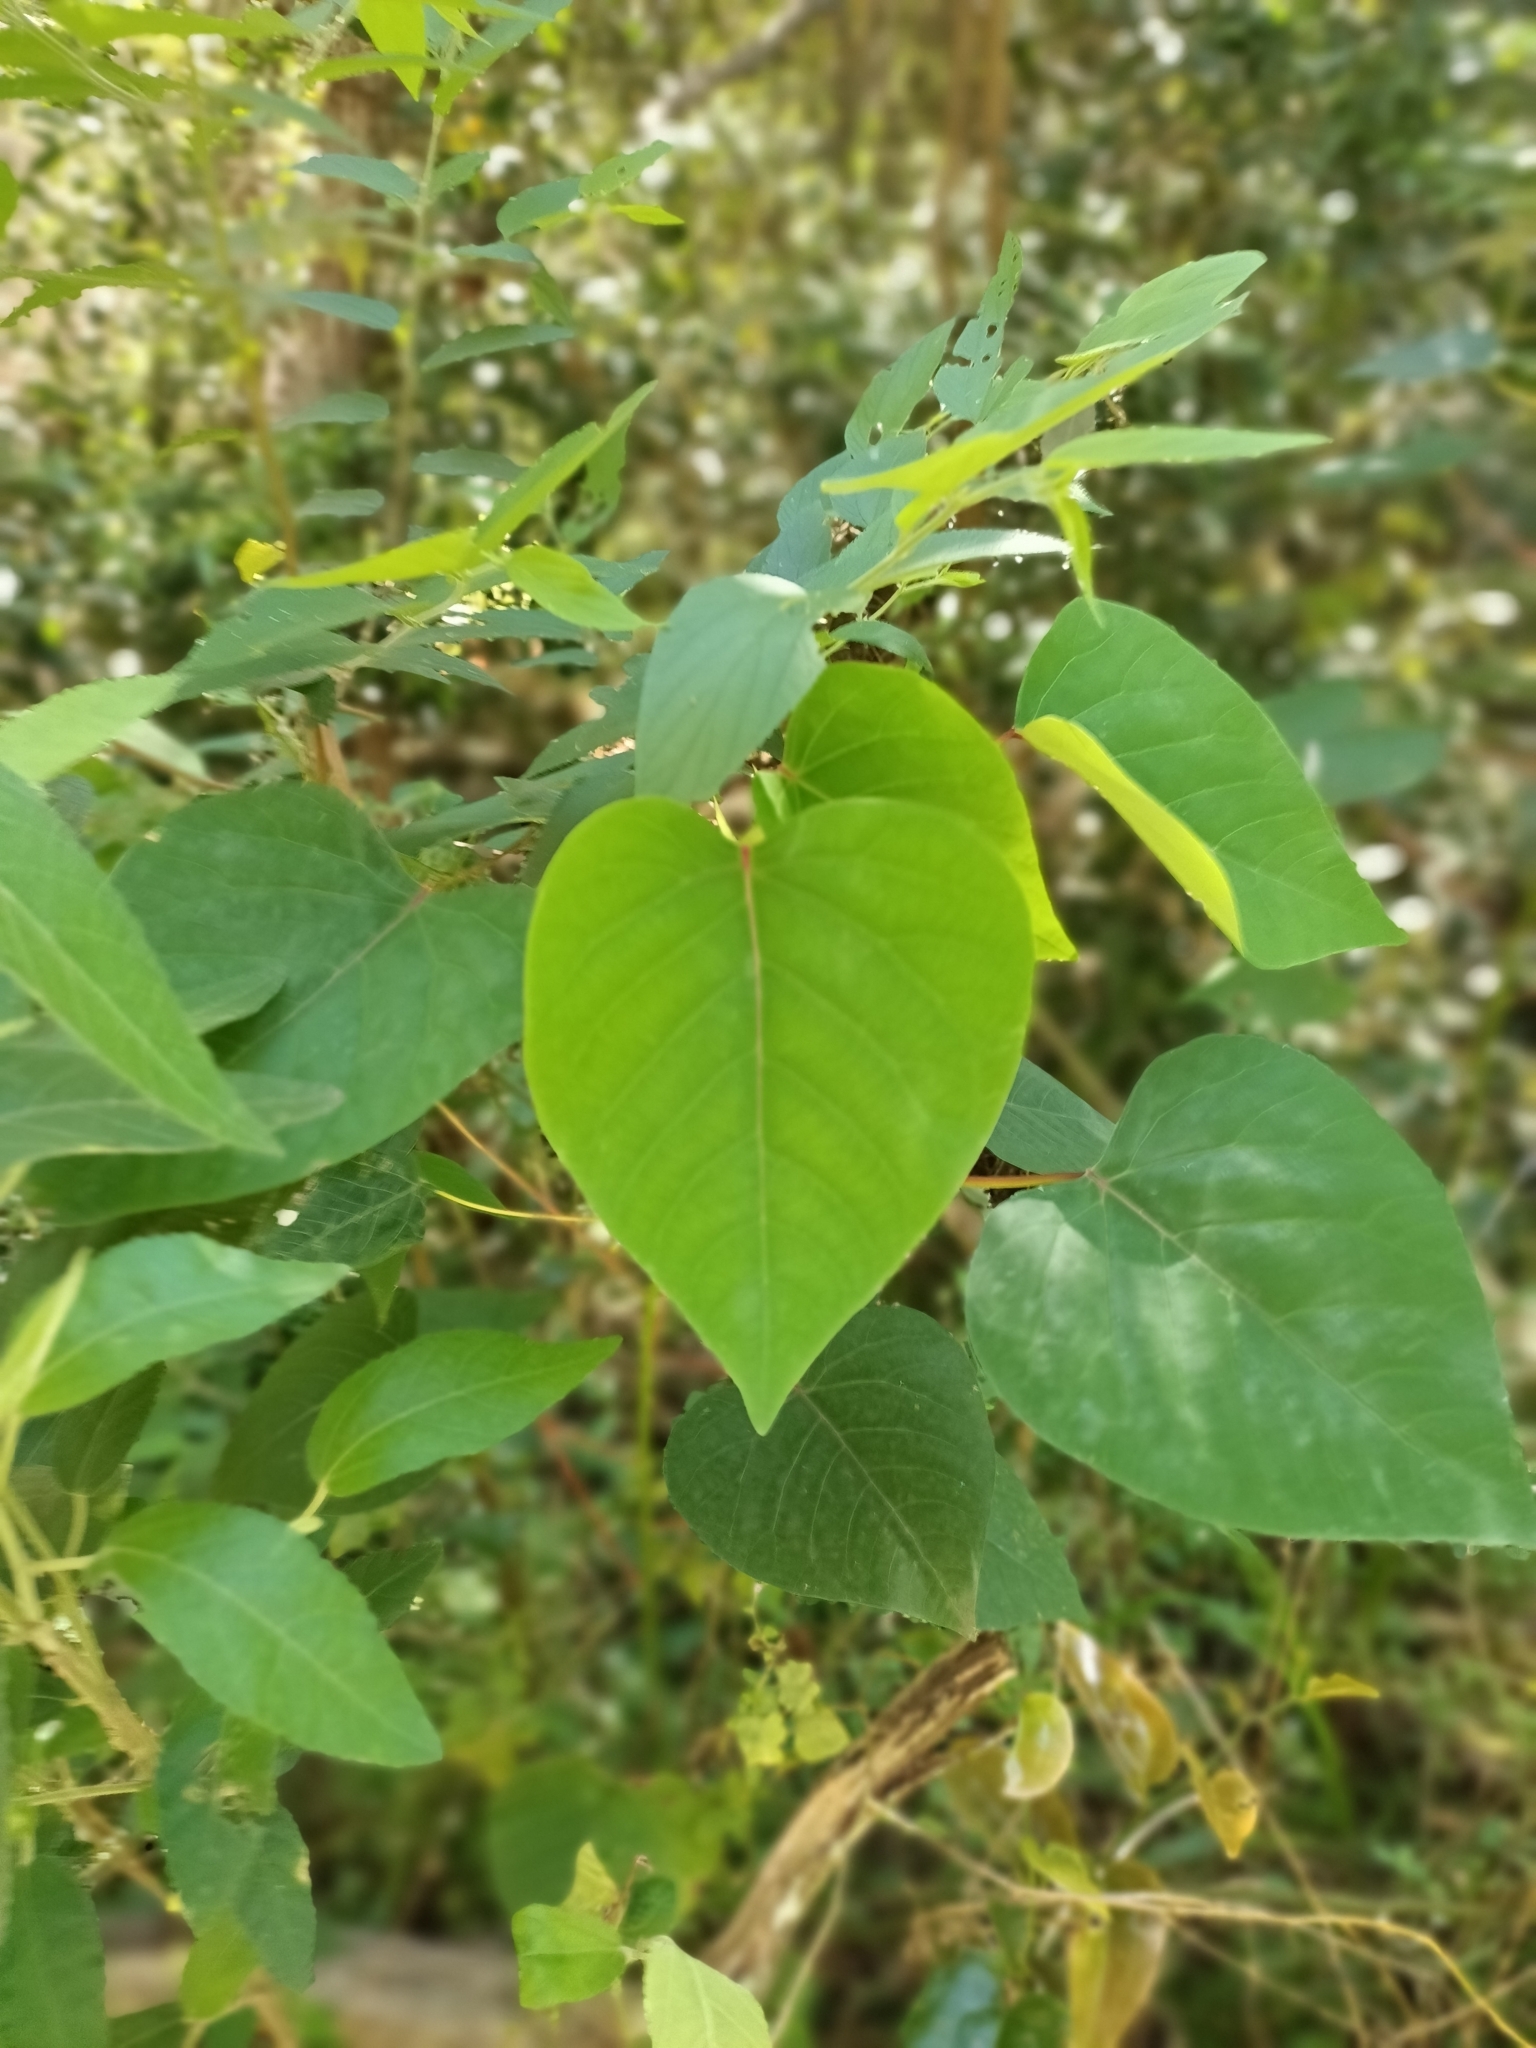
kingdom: Plantae
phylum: Tracheophyta
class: Magnoliopsida
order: Malpighiales
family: Euphorbiaceae
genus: Homalanthus
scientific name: Homalanthus stillingifolius
